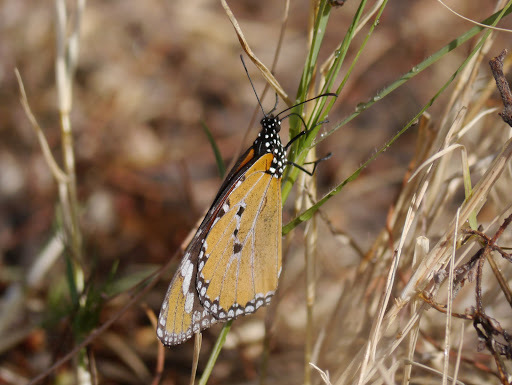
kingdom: Animalia
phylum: Arthropoda
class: Insecta
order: Lepidoptera
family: Nymphalidae
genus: Danaus
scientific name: Danaus chrysippus
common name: Plain tiger
